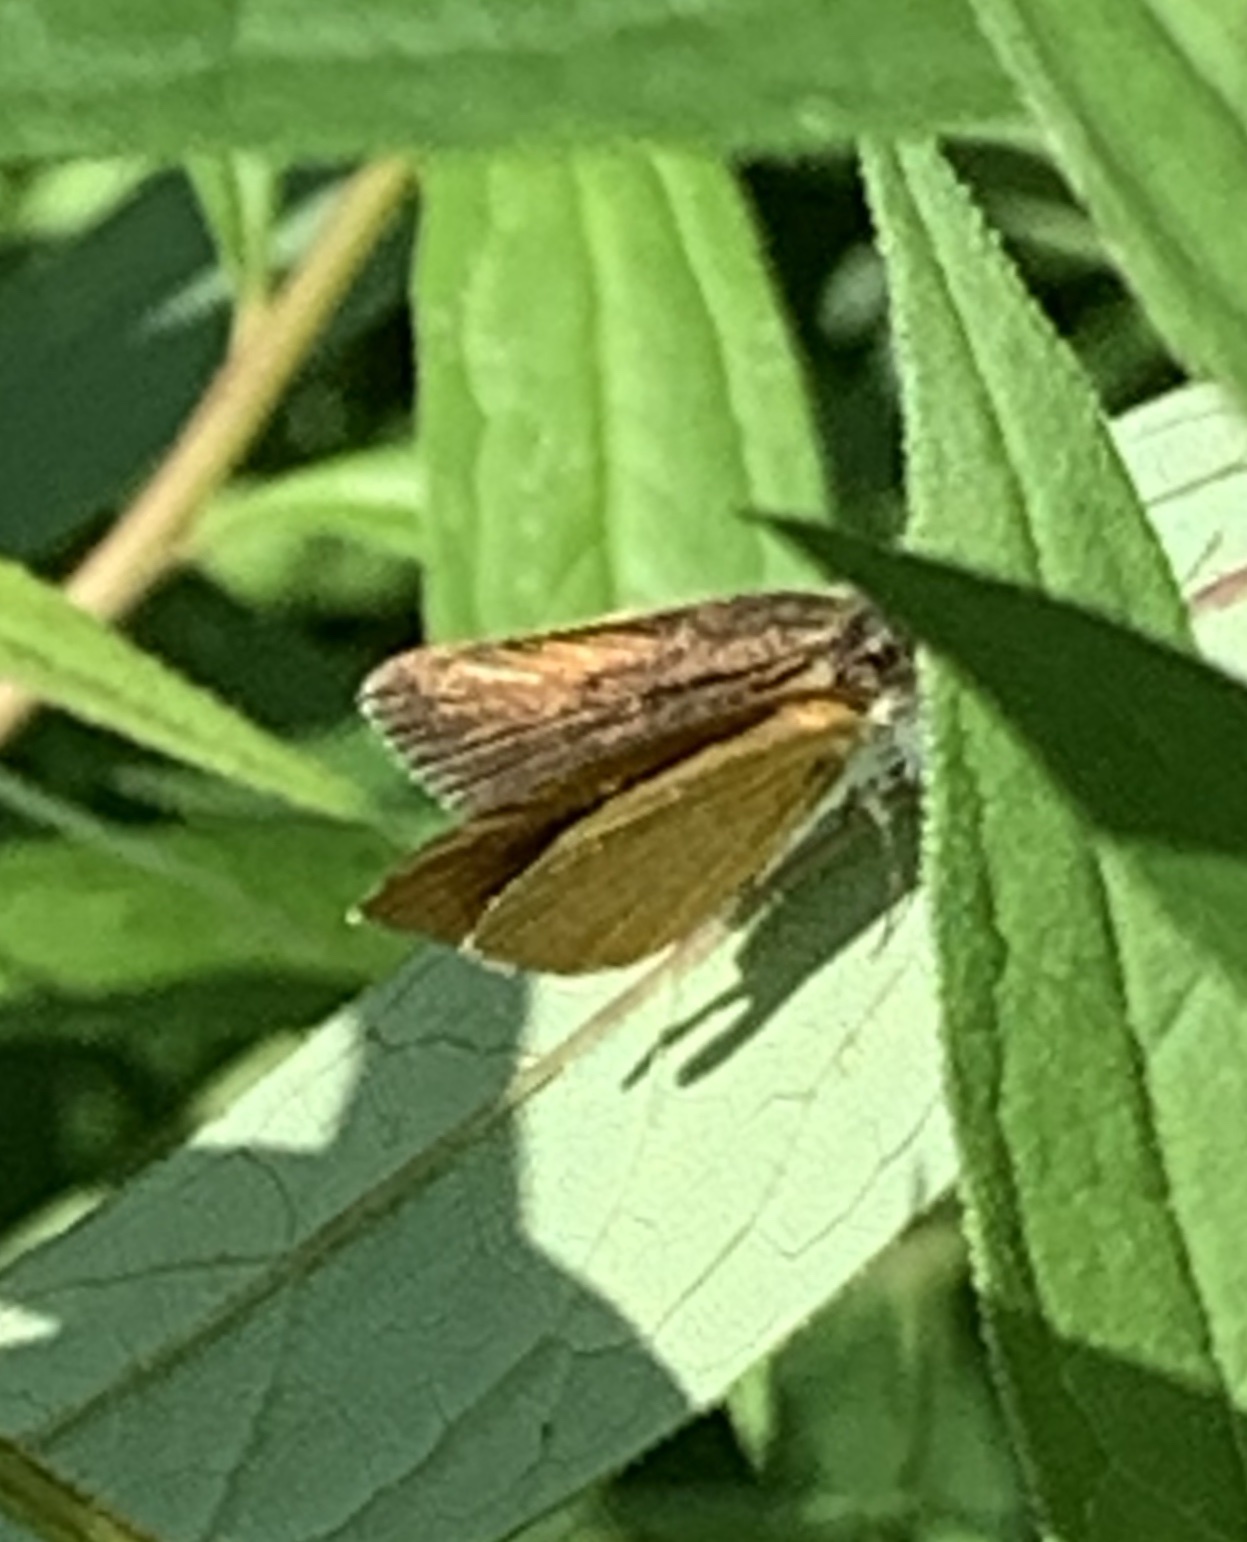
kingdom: Animalia
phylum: Arthropoda
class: Insecta
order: Lepidoptera
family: Hesperiidae
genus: Ancyloxypha
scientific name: Ancyloxypha numitor
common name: Least skipper
